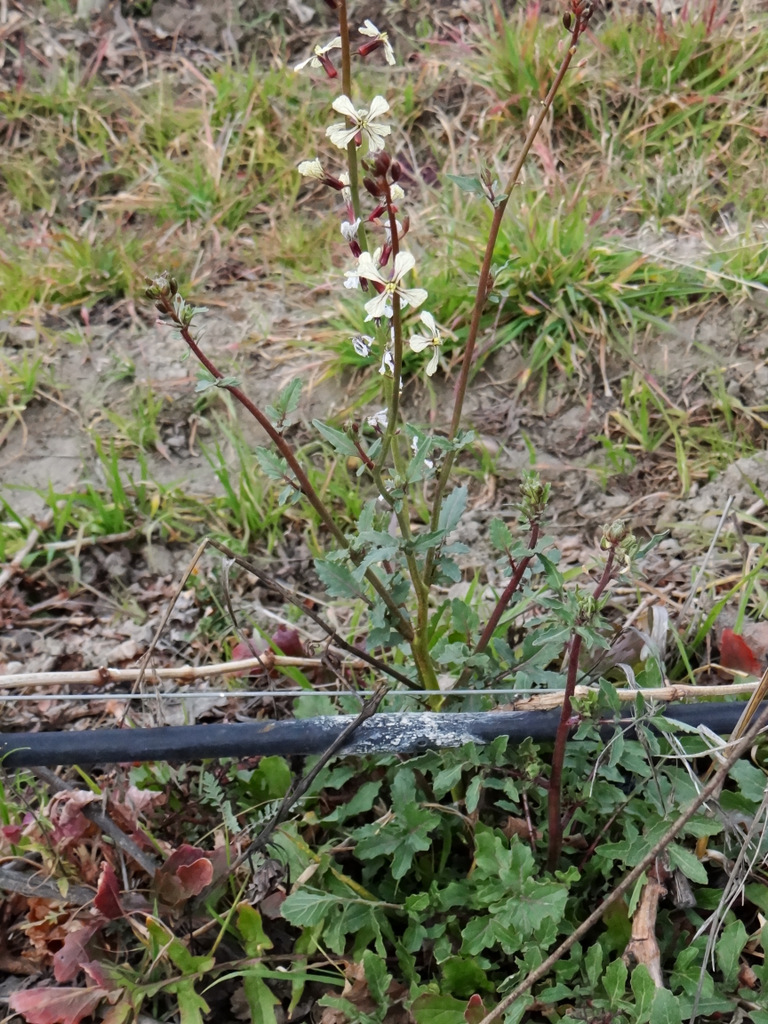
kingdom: Plantae
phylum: Tracheophyta
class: Magnoliopsida
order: Brassicales
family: Brassicaceae
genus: Eruca
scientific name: Eruca vesicaria
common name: Garden rocket
